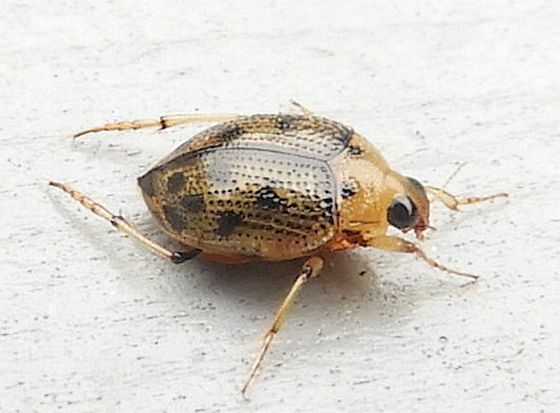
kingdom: Animalia
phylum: Arthropoda
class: Insecta
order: Coleoptera
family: Haliplidae
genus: Peltodytes
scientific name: Peltodytes sexmaculatus
